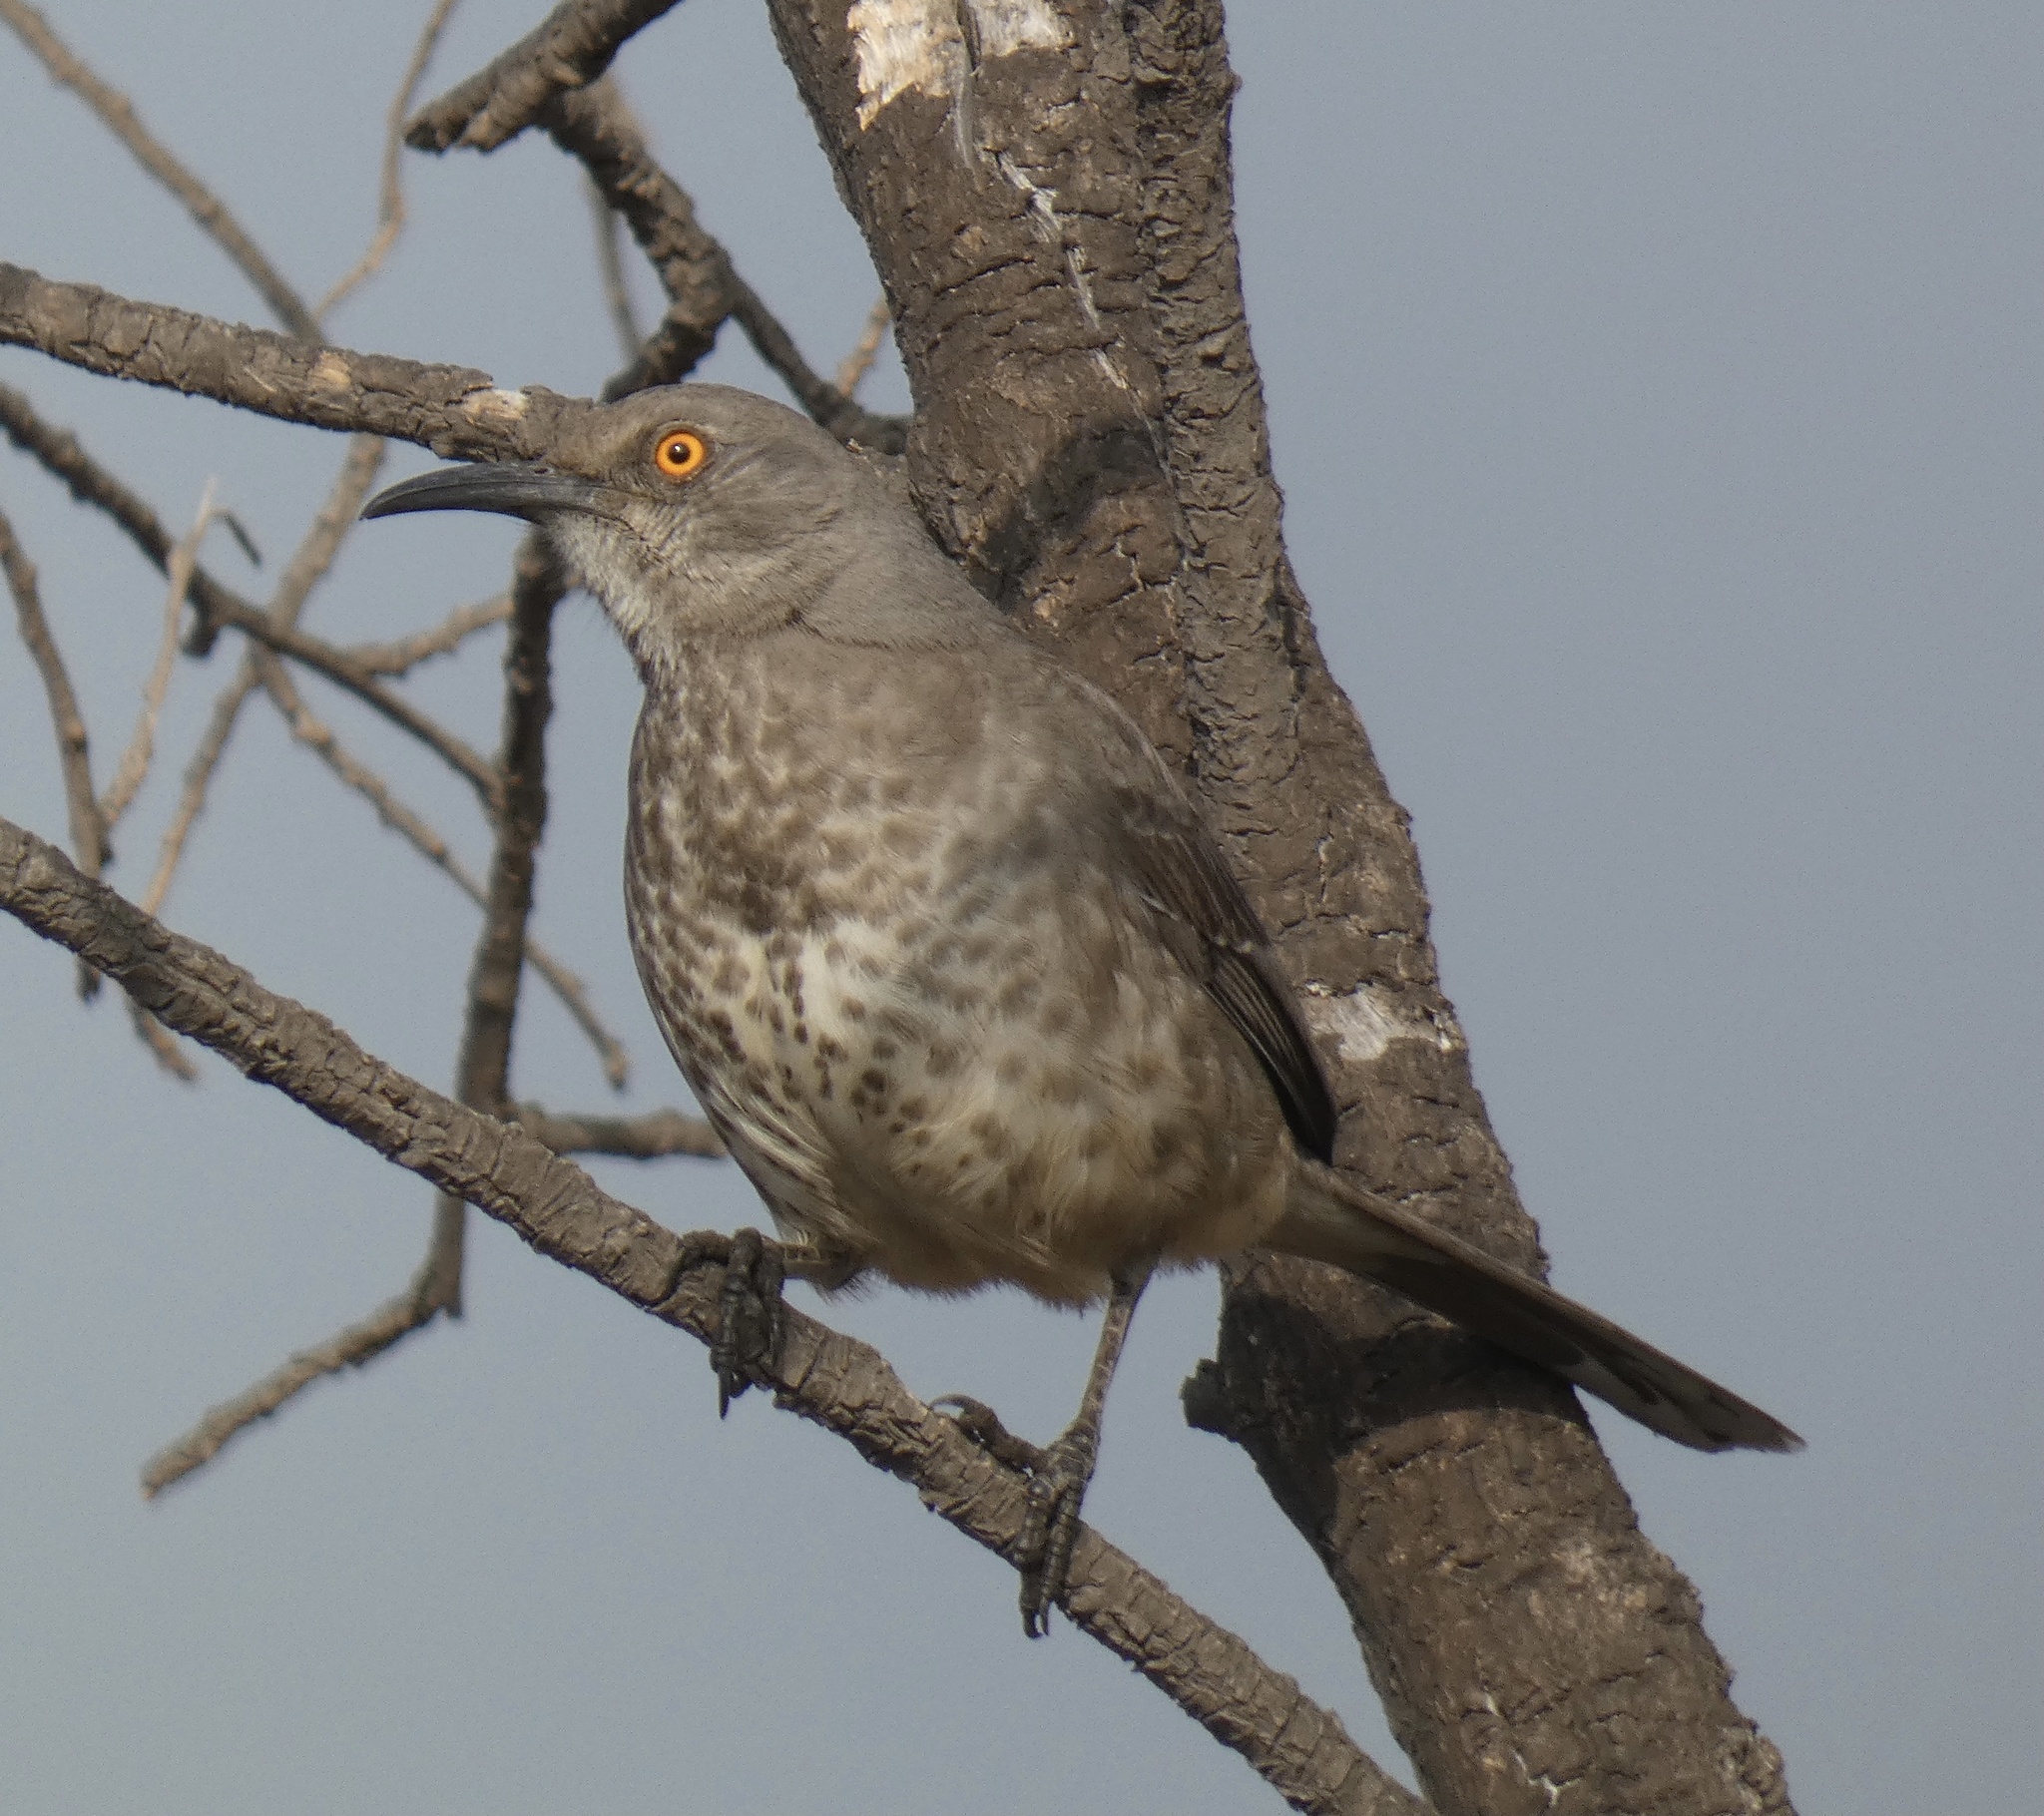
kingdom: Animalia
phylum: Chordata
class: Aves
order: Passeriformes
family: Mimidae
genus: Toxostoma
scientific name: Toxostoma curvirostre
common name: Curve-billed thrasher
